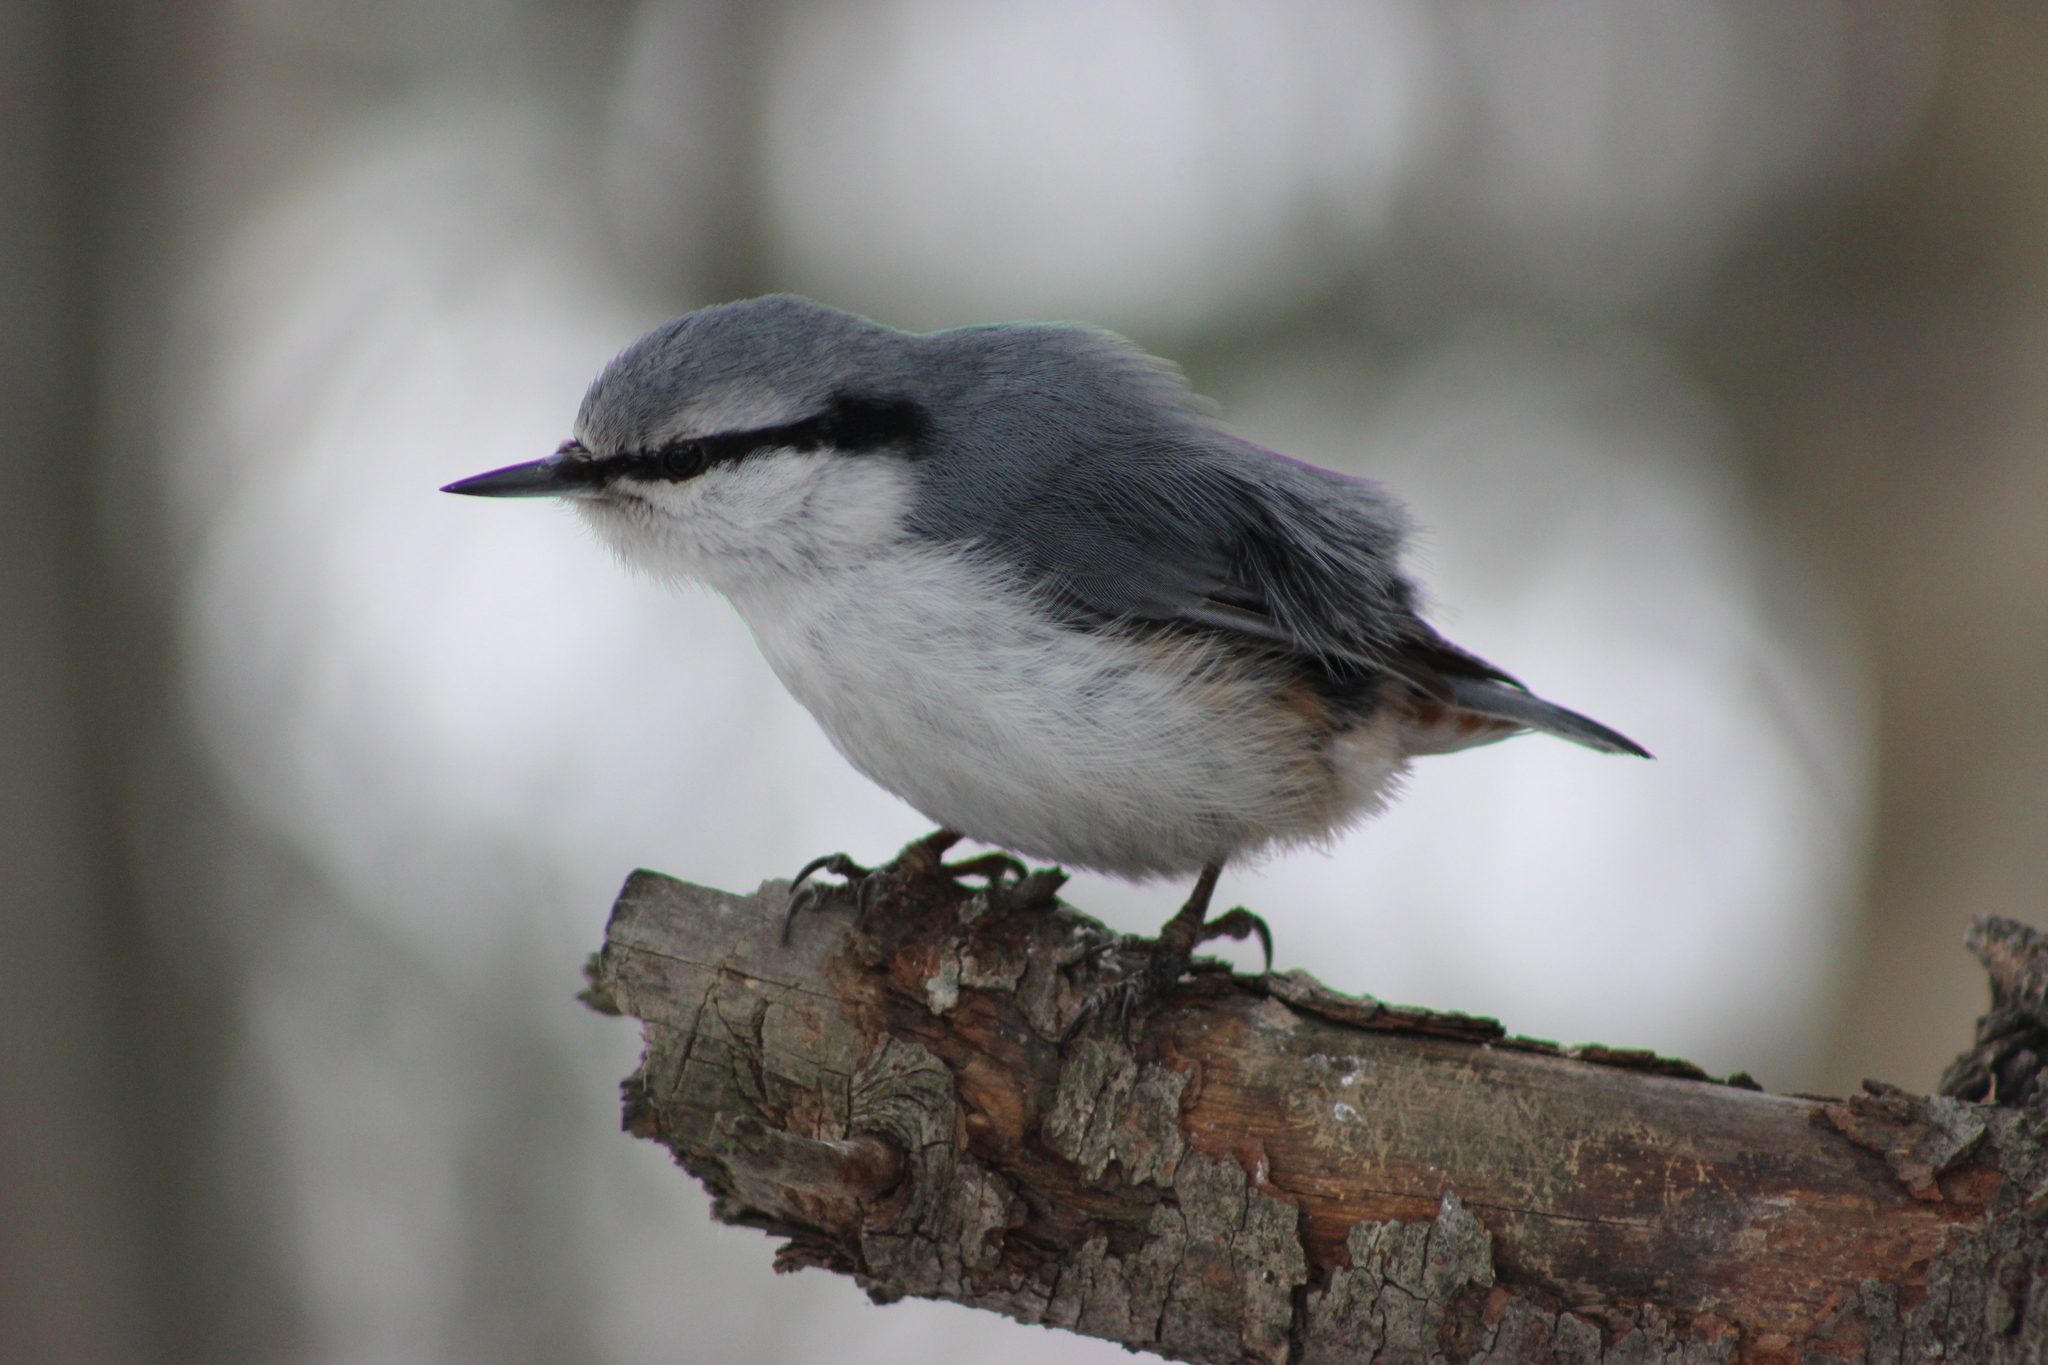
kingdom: Animalia
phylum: Chordata
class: Aves
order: Passeriformes
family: Sittidae
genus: Sitta
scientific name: Sitta europaea
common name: Eurasian nuthatch
